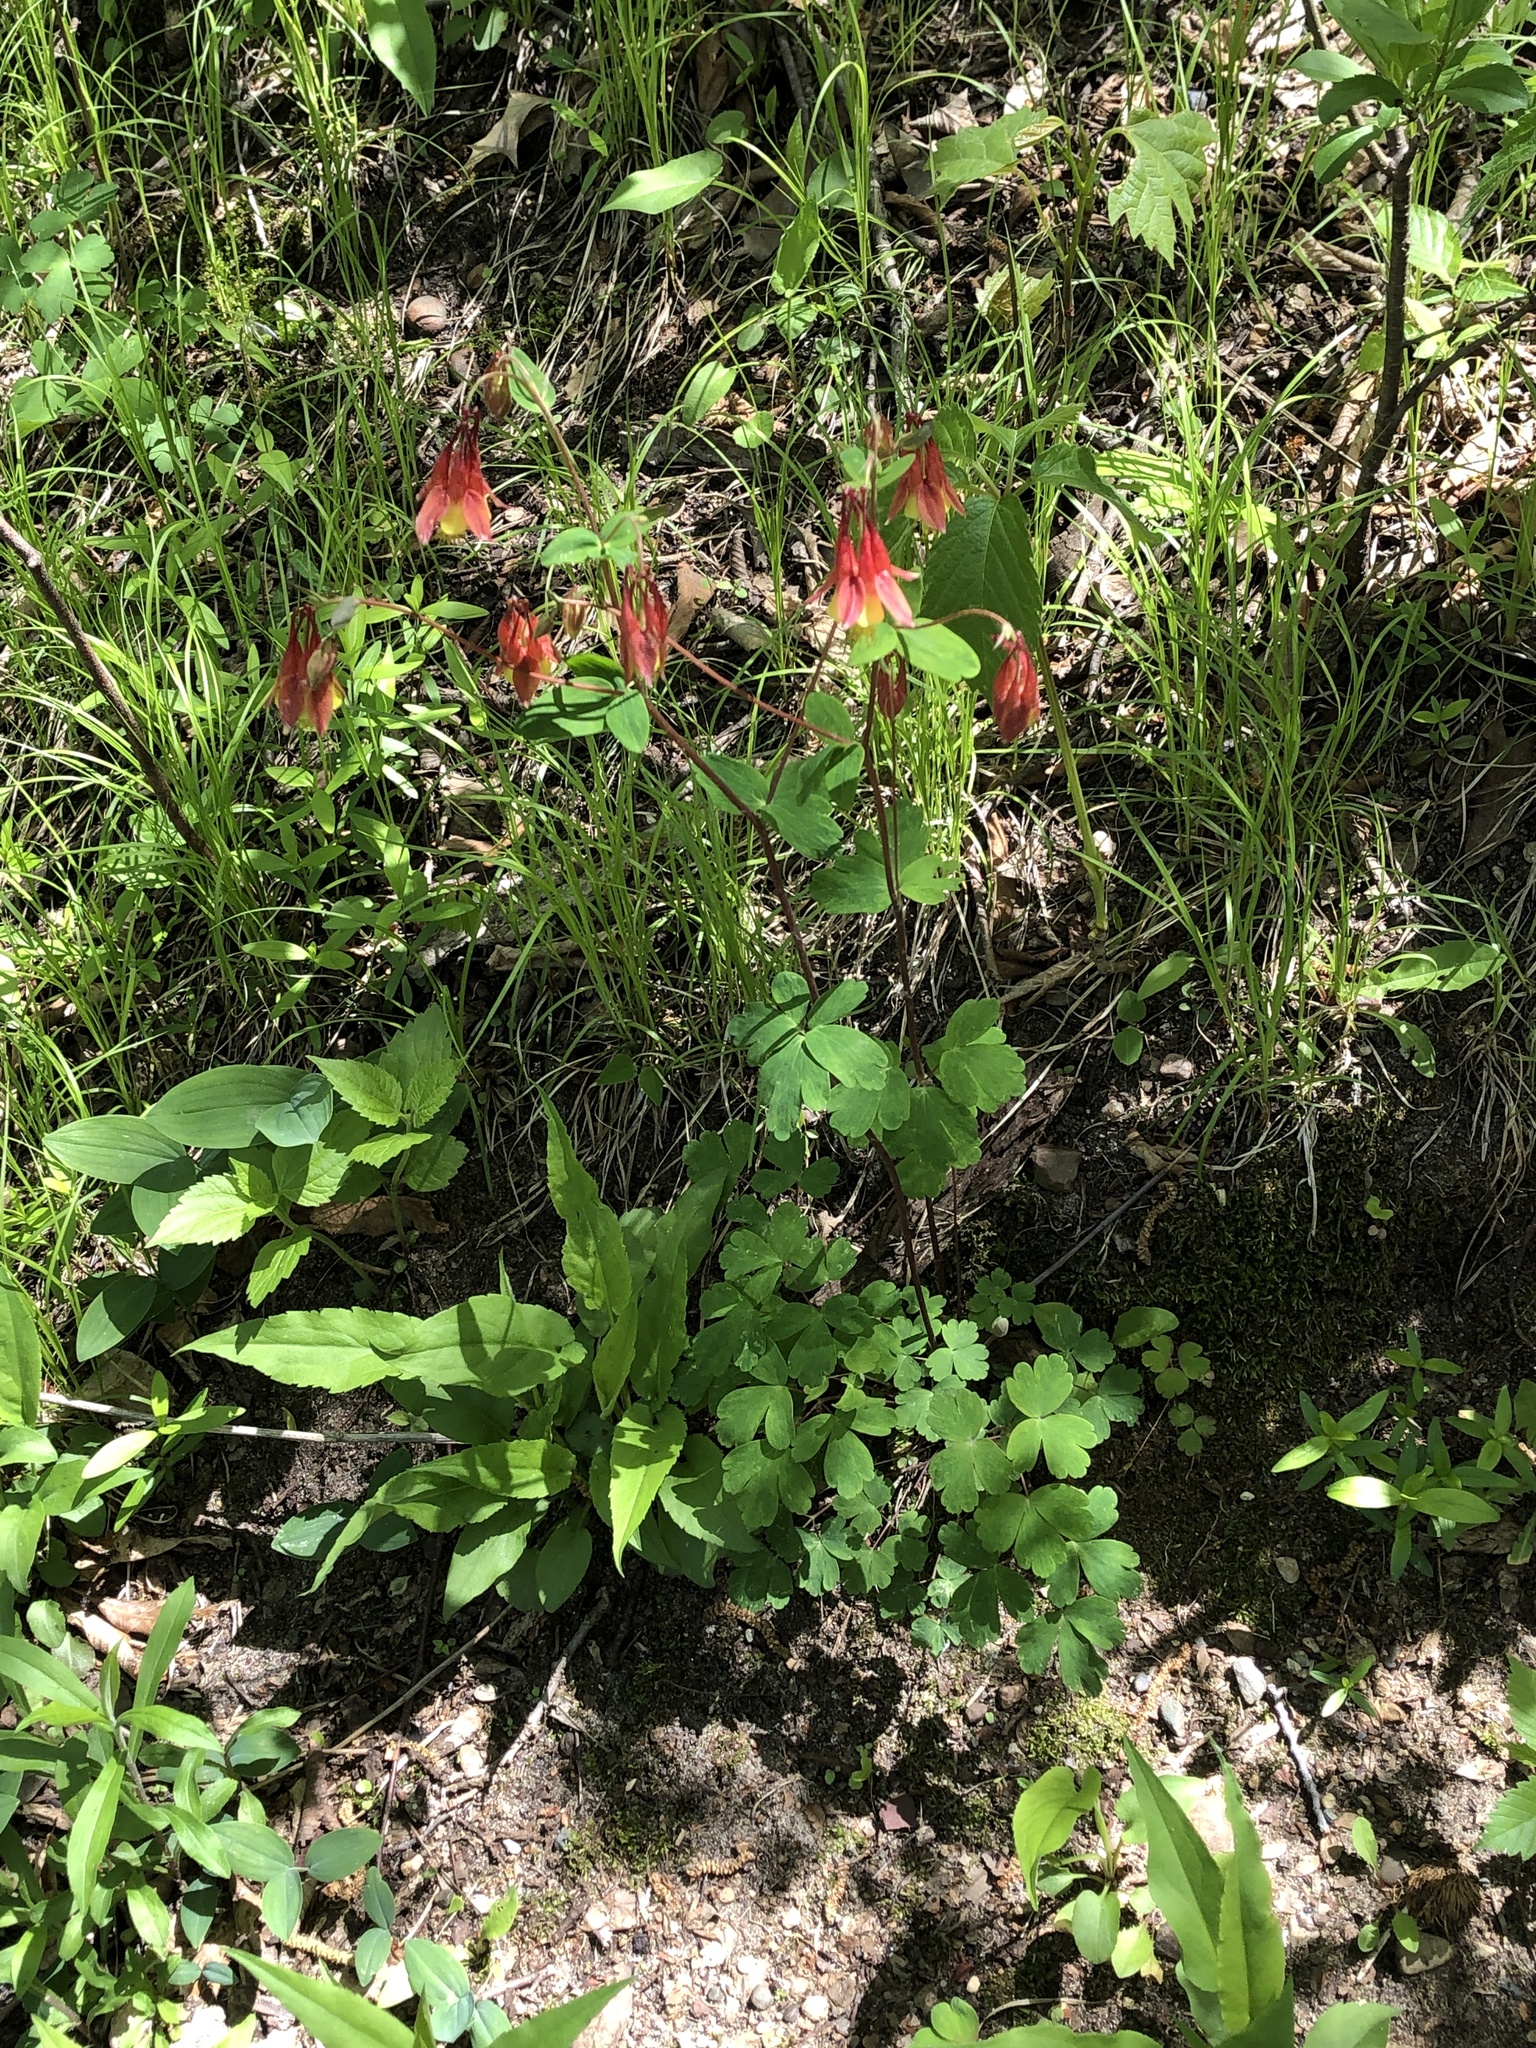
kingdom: Plantae
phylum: Tracheophyta
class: Magnoliopsida
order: Ranunculales
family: Ranunculaceae
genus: Aquilegia
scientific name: Aquilegia canadensis
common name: American columbine
